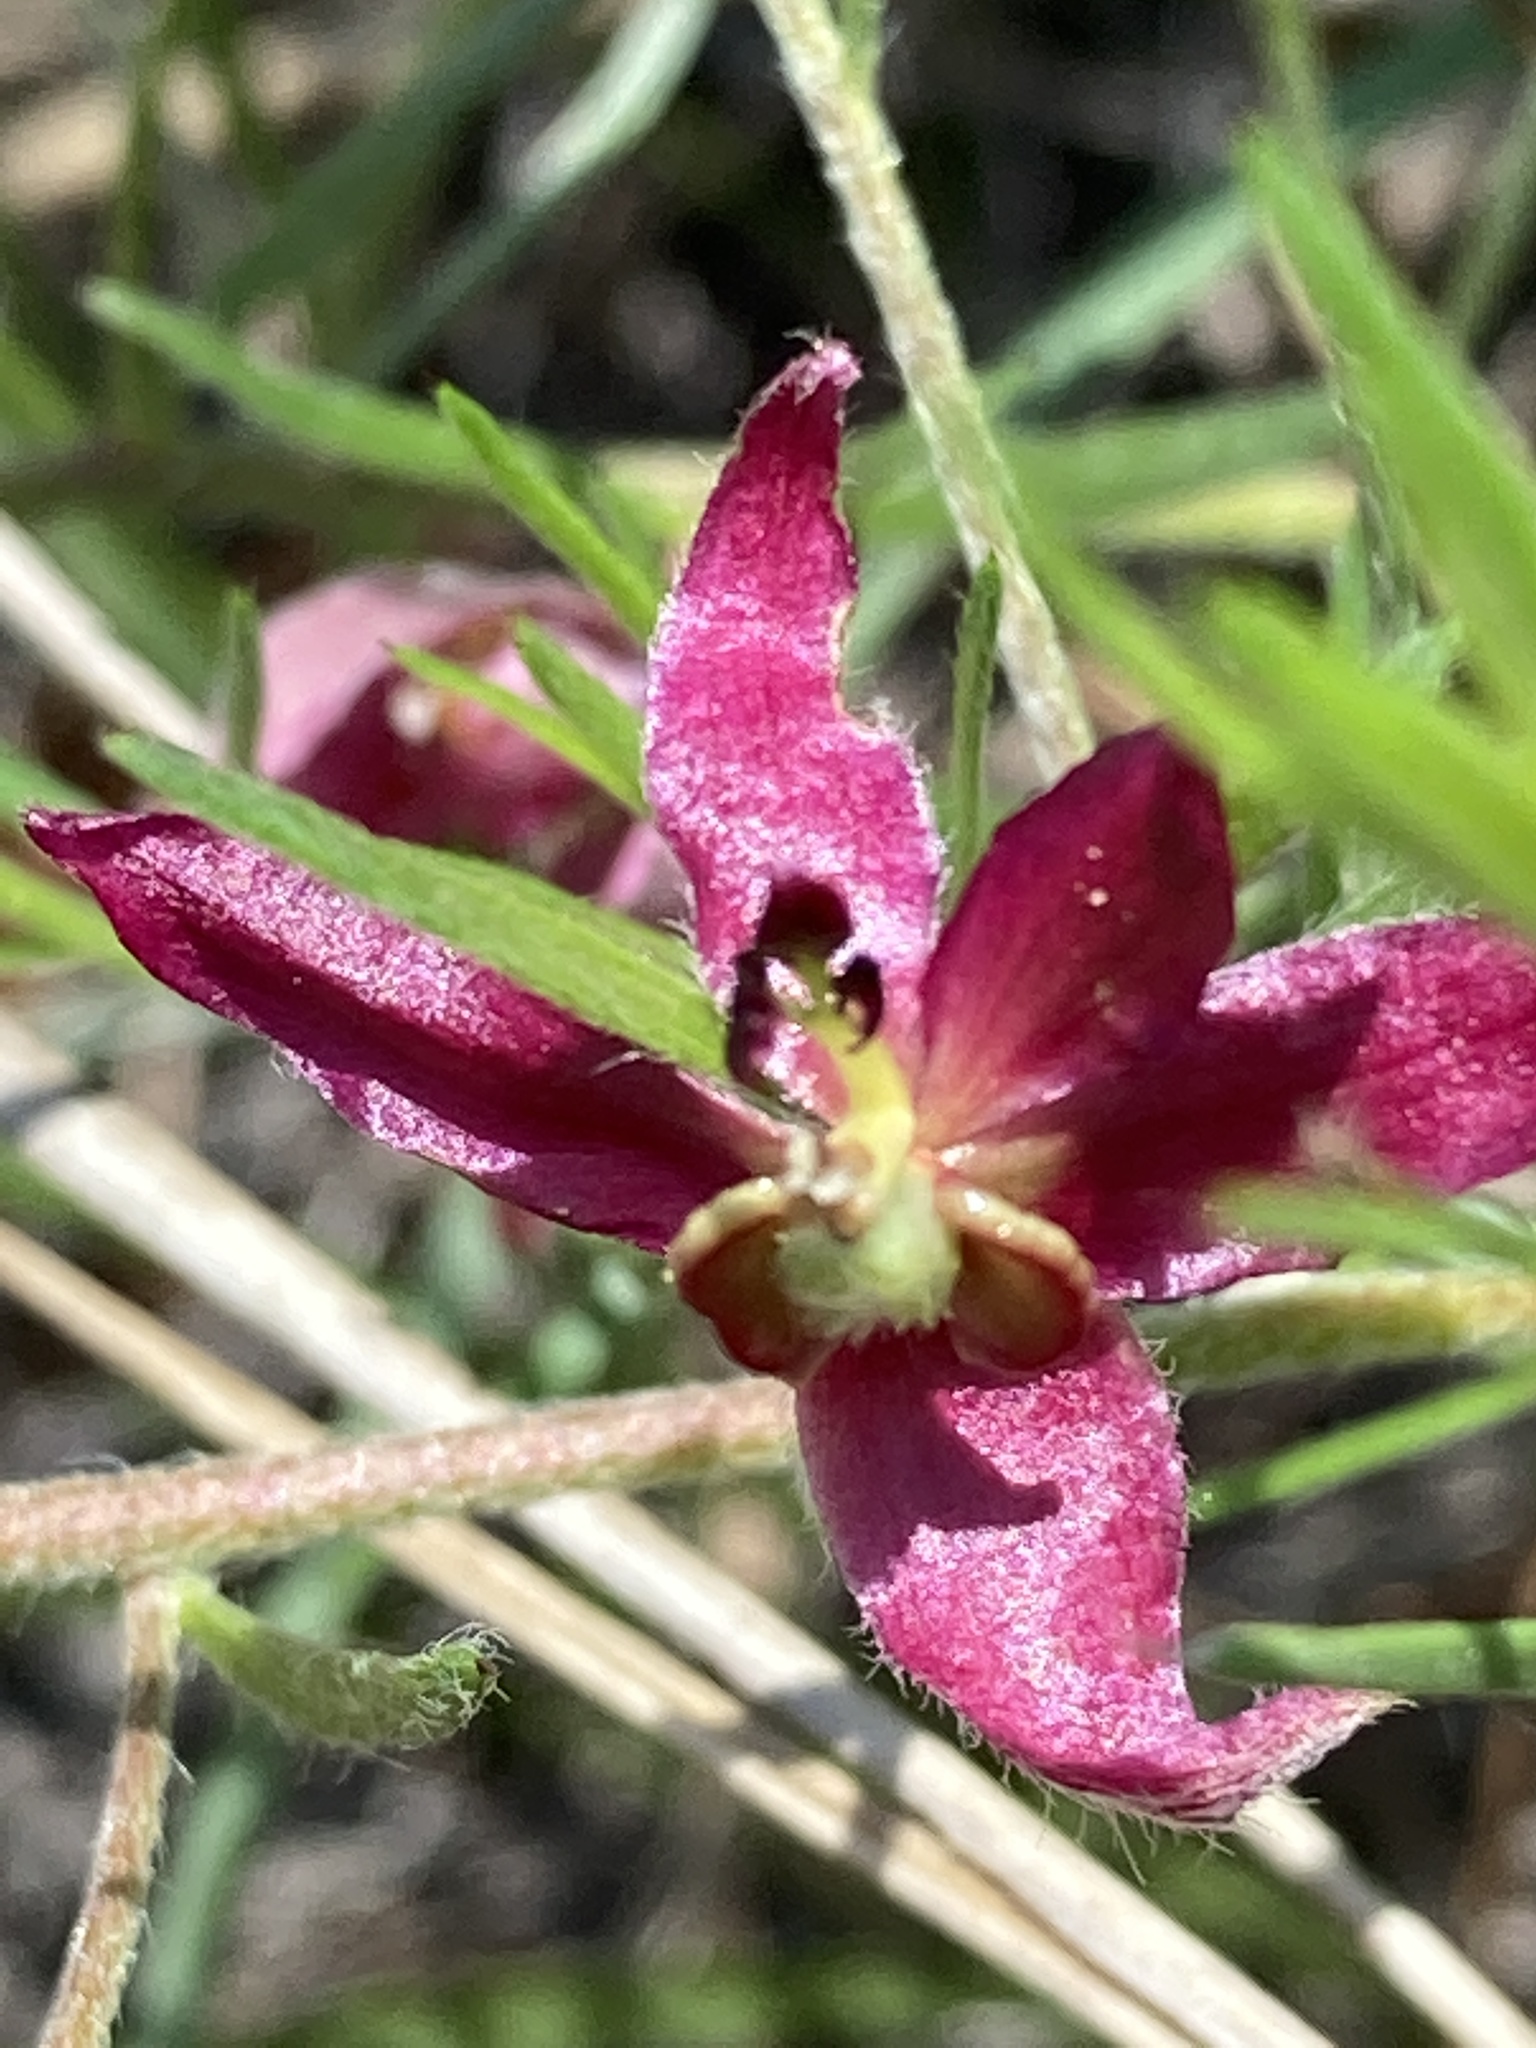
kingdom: Plantae
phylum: Tracheophyta
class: Magnoliopsida
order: Zygophyllales
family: Krameriaceae
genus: Krameria
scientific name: Krameria lanceolata
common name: Ratany
